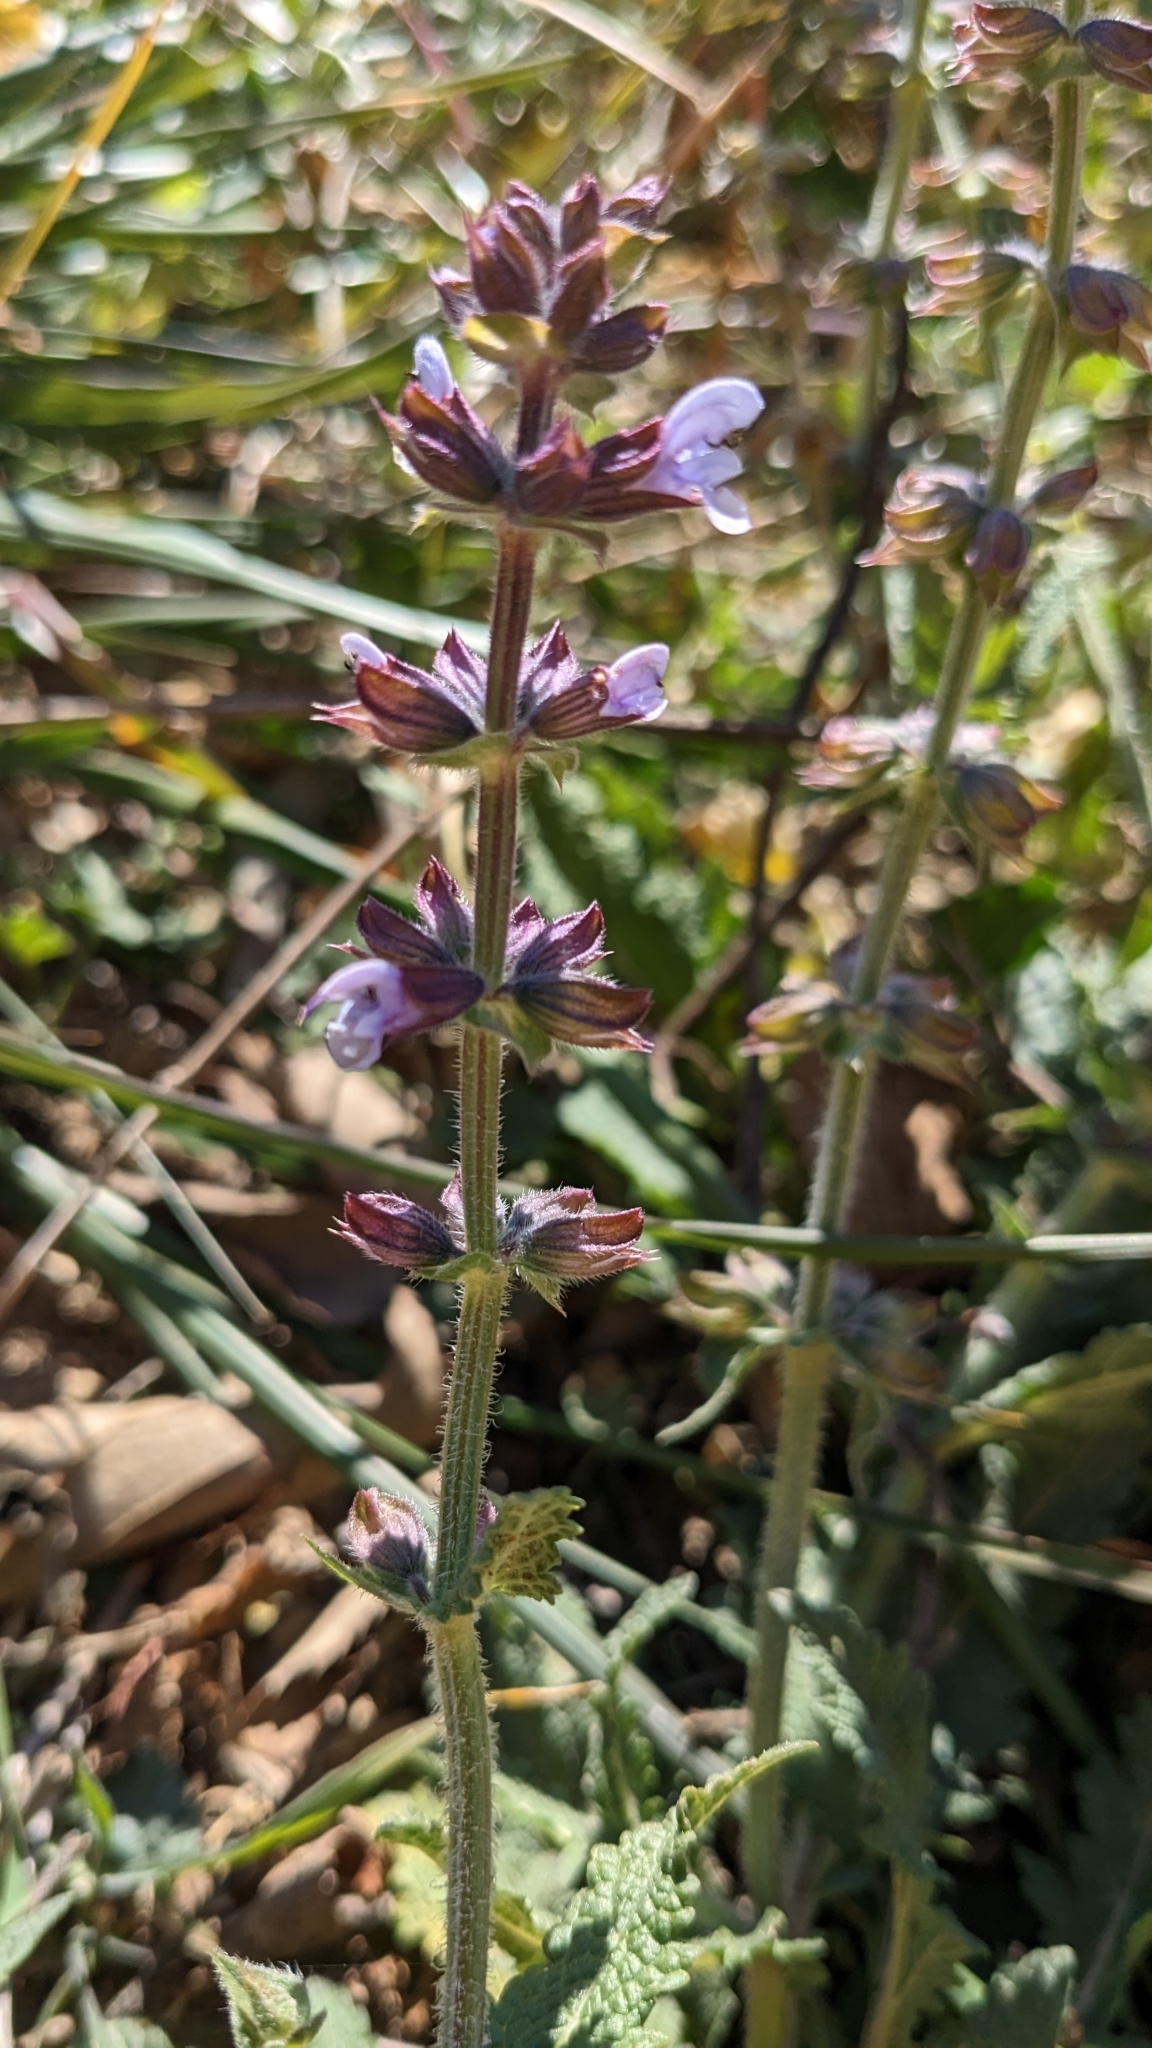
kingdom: Plantae
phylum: Tracheophyta
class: Magnoliopsida
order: Lamiales
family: Lamiaceae
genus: Salvia
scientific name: Salvia verbenaca
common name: Wild clary
